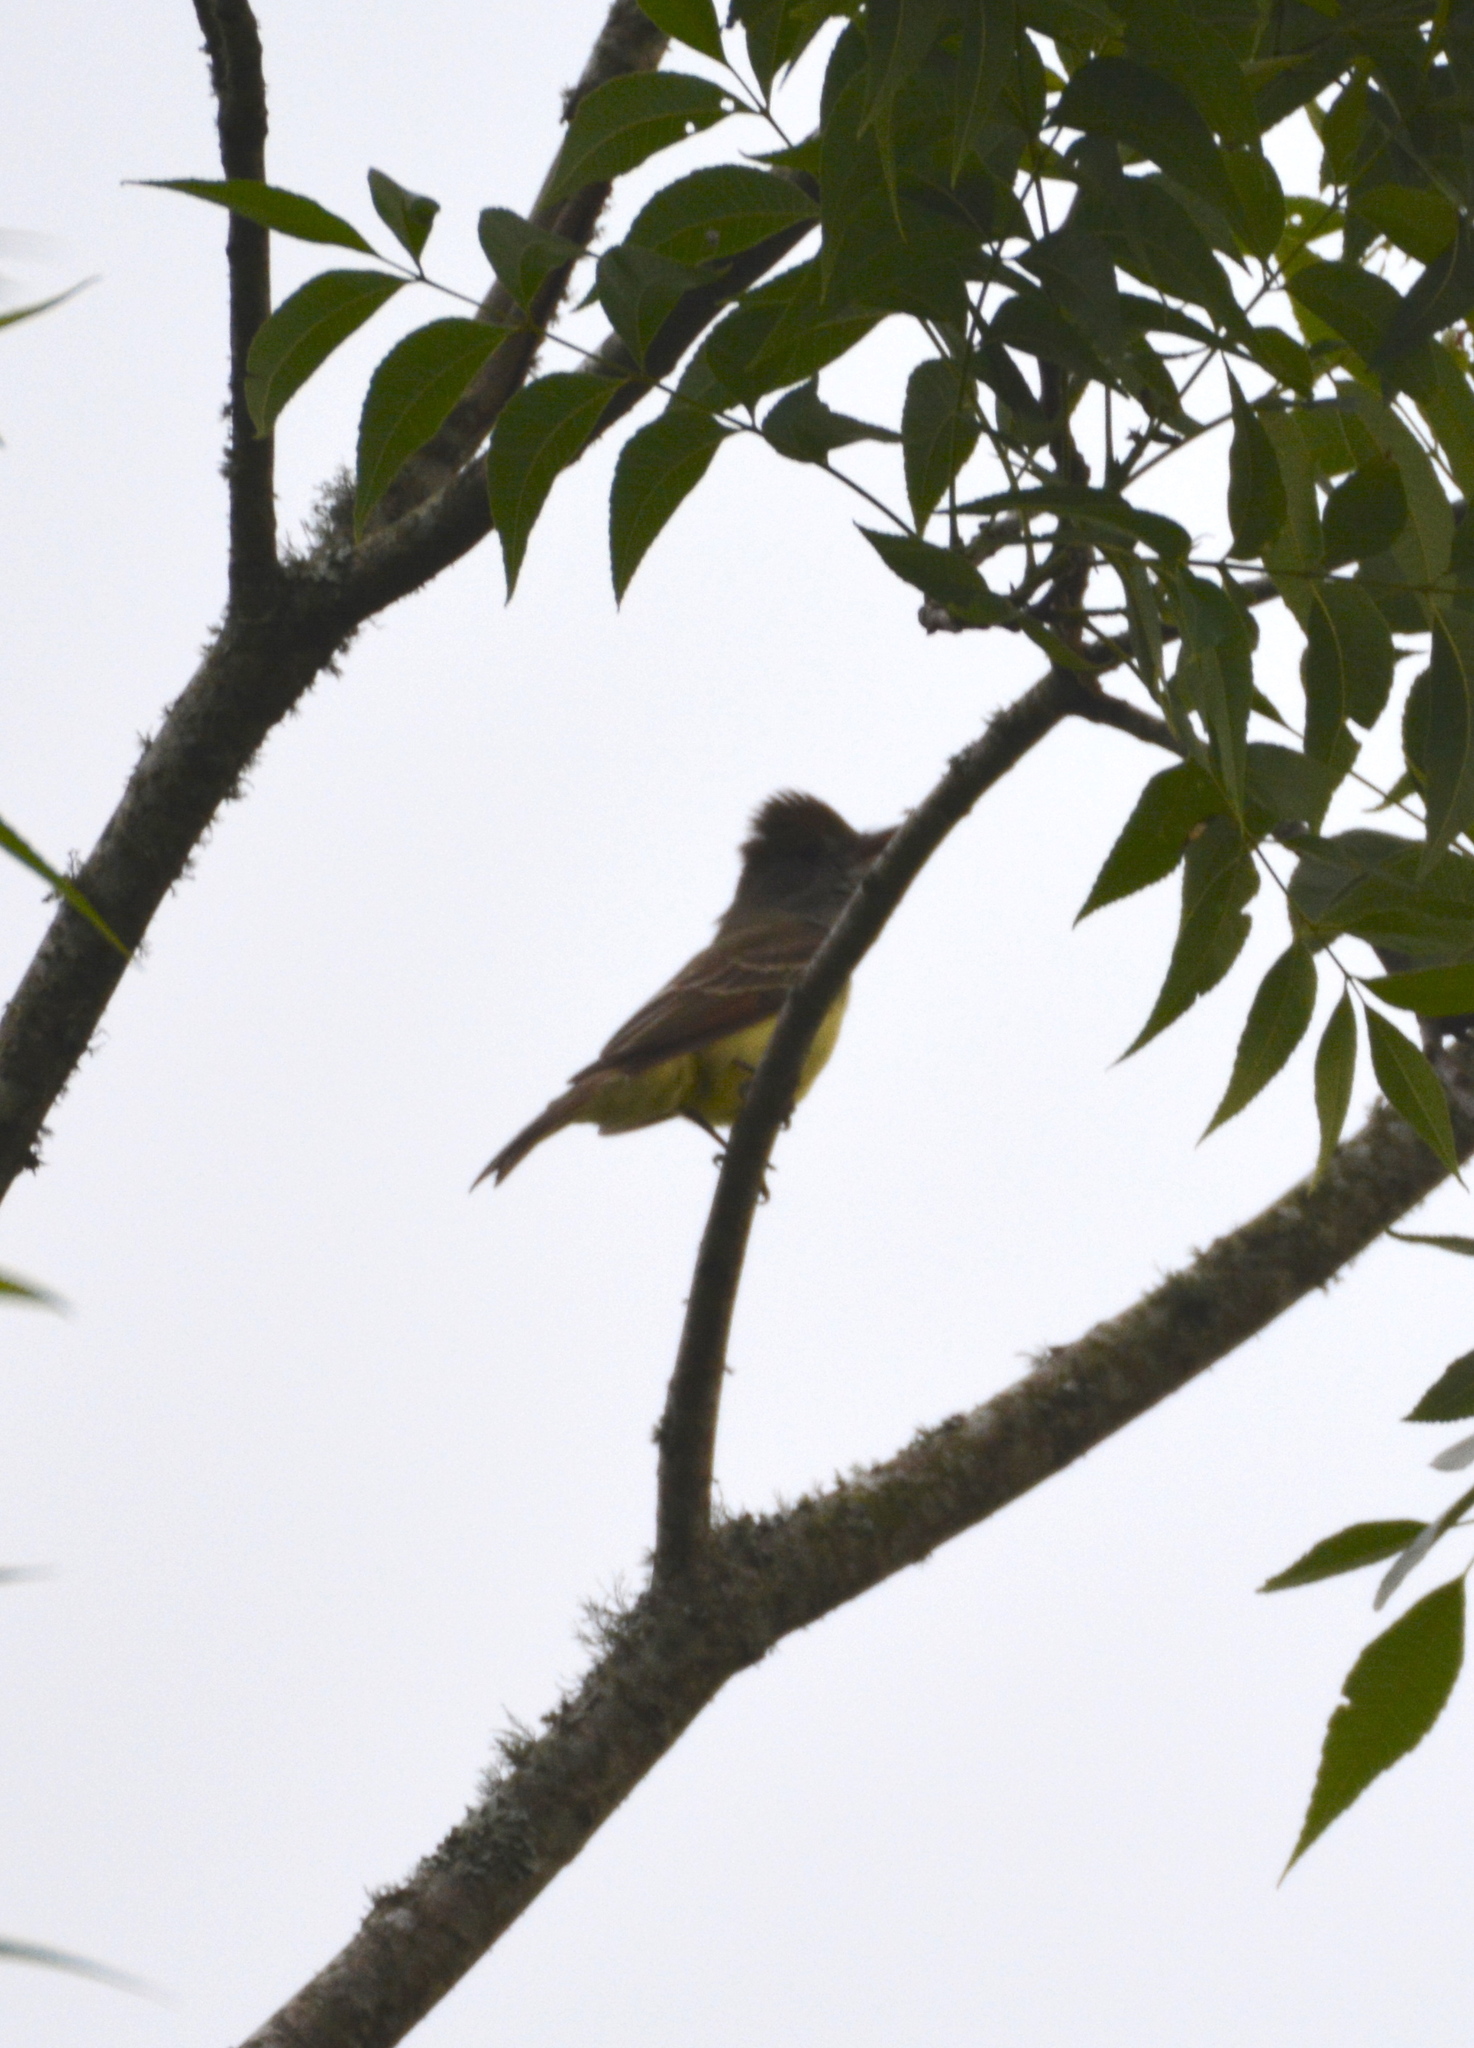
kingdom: Animalia
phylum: Chordata
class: Aves
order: Passeriformes
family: Tyrannidae
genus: Myiarchus
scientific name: Myiarchus crinitus
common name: Great crested flycatcher
